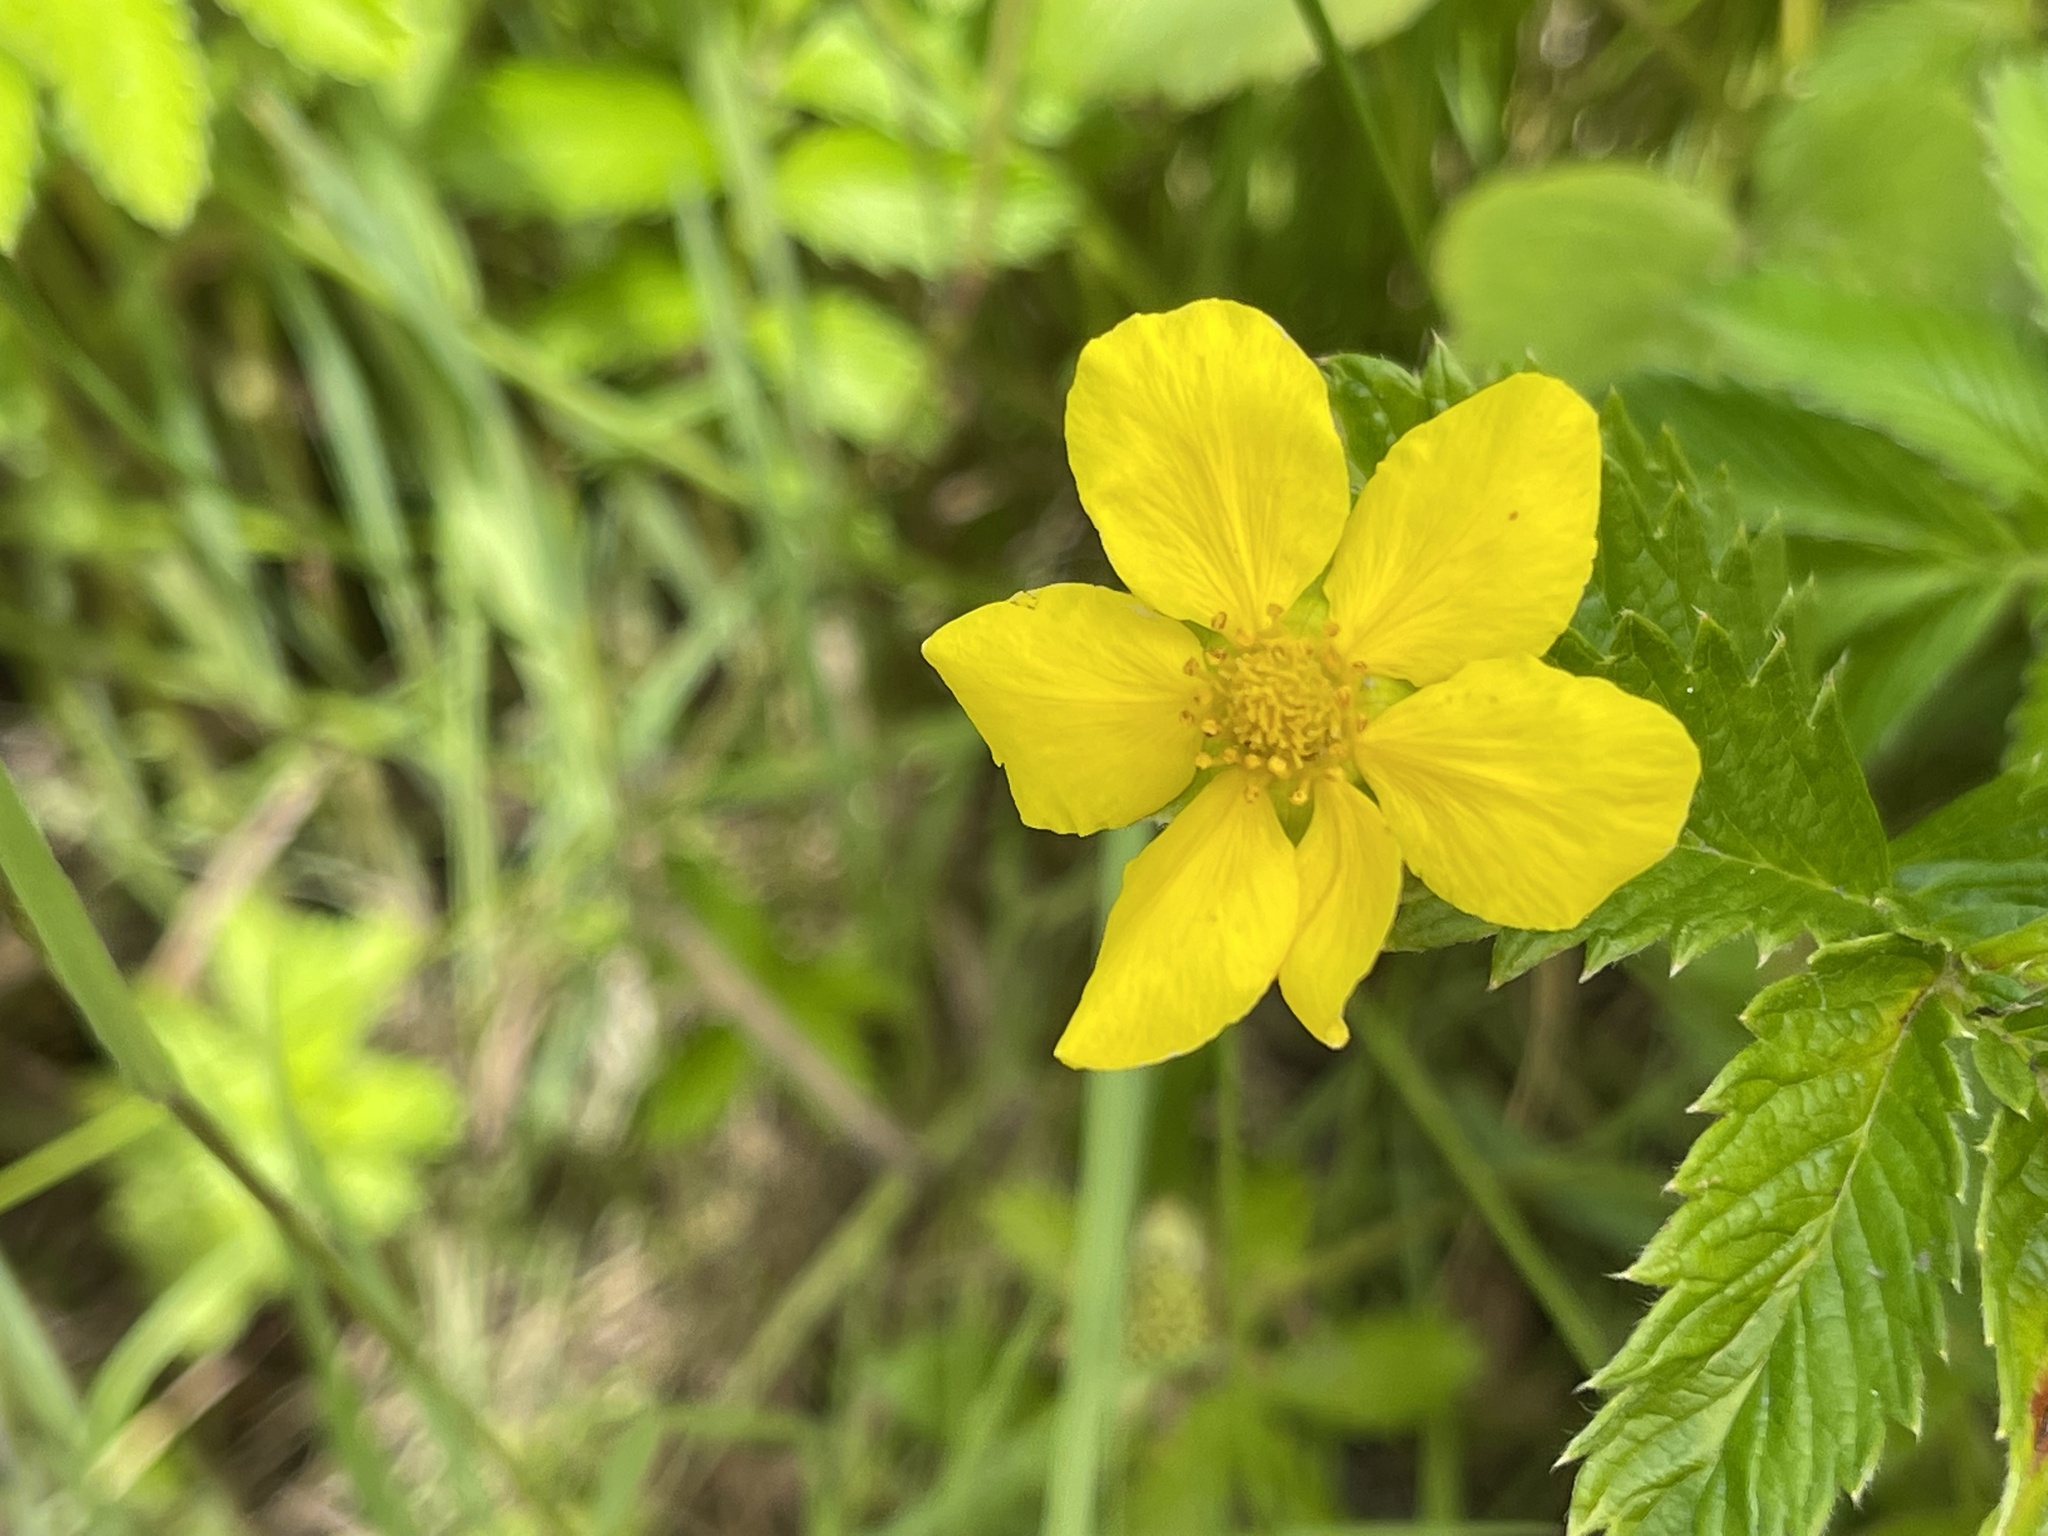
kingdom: Plantae
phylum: Tracheophyta
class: Magnoliopsida
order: Rosales
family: Rosaceae
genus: Argentina
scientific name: Argentina anserina
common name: Common silverweed
